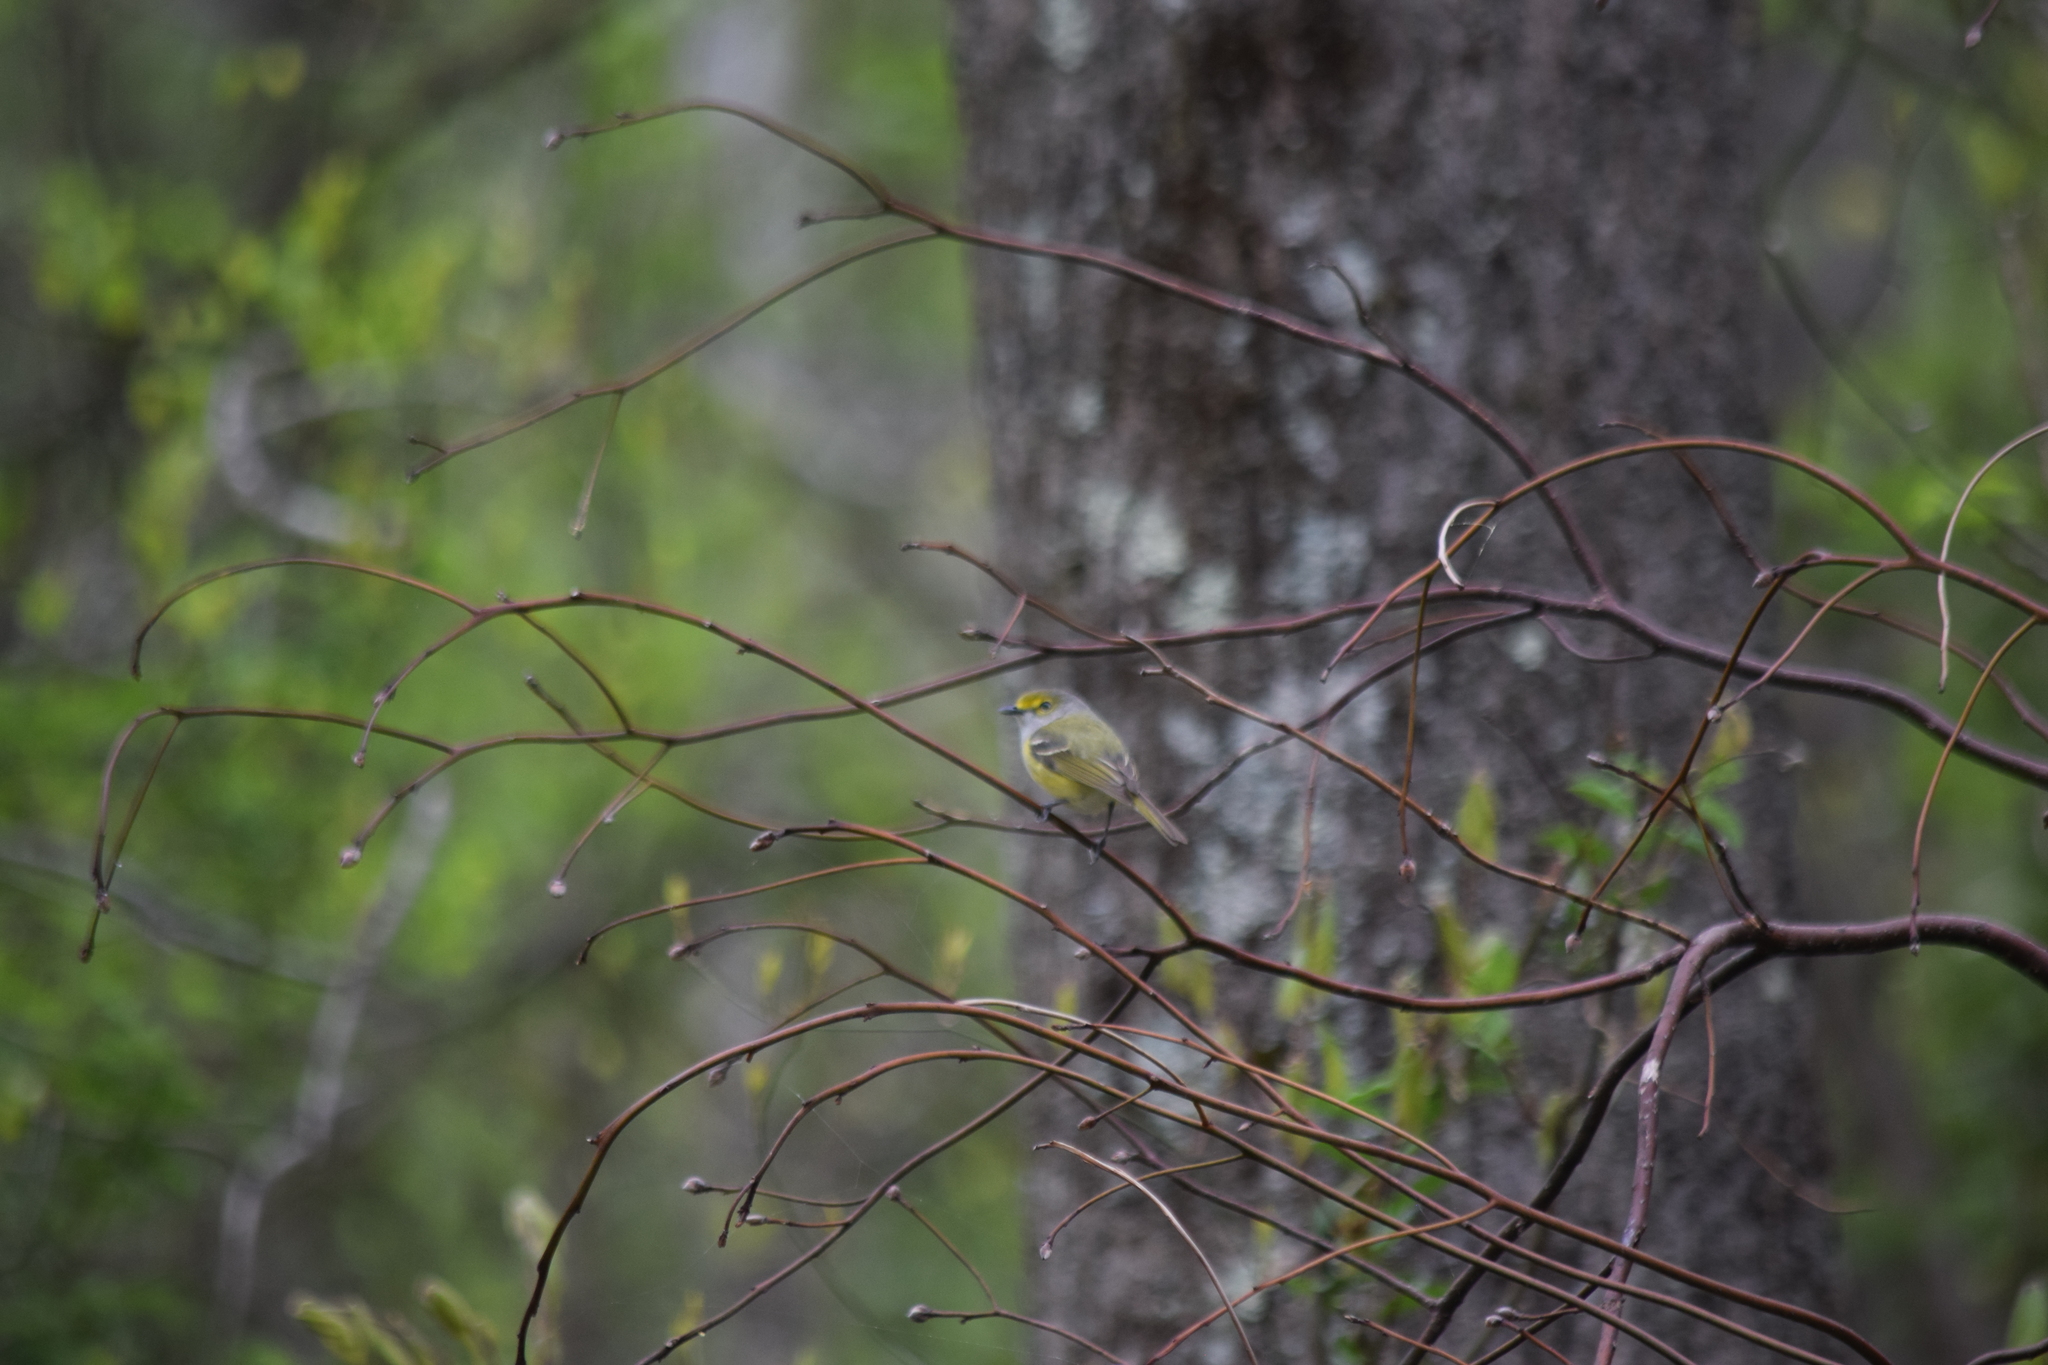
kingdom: Animalia
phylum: Chordata
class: Aves
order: Passeriformes
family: Vireonidae
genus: Vireo
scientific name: Vireo griseus
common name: White-eyed vireo
